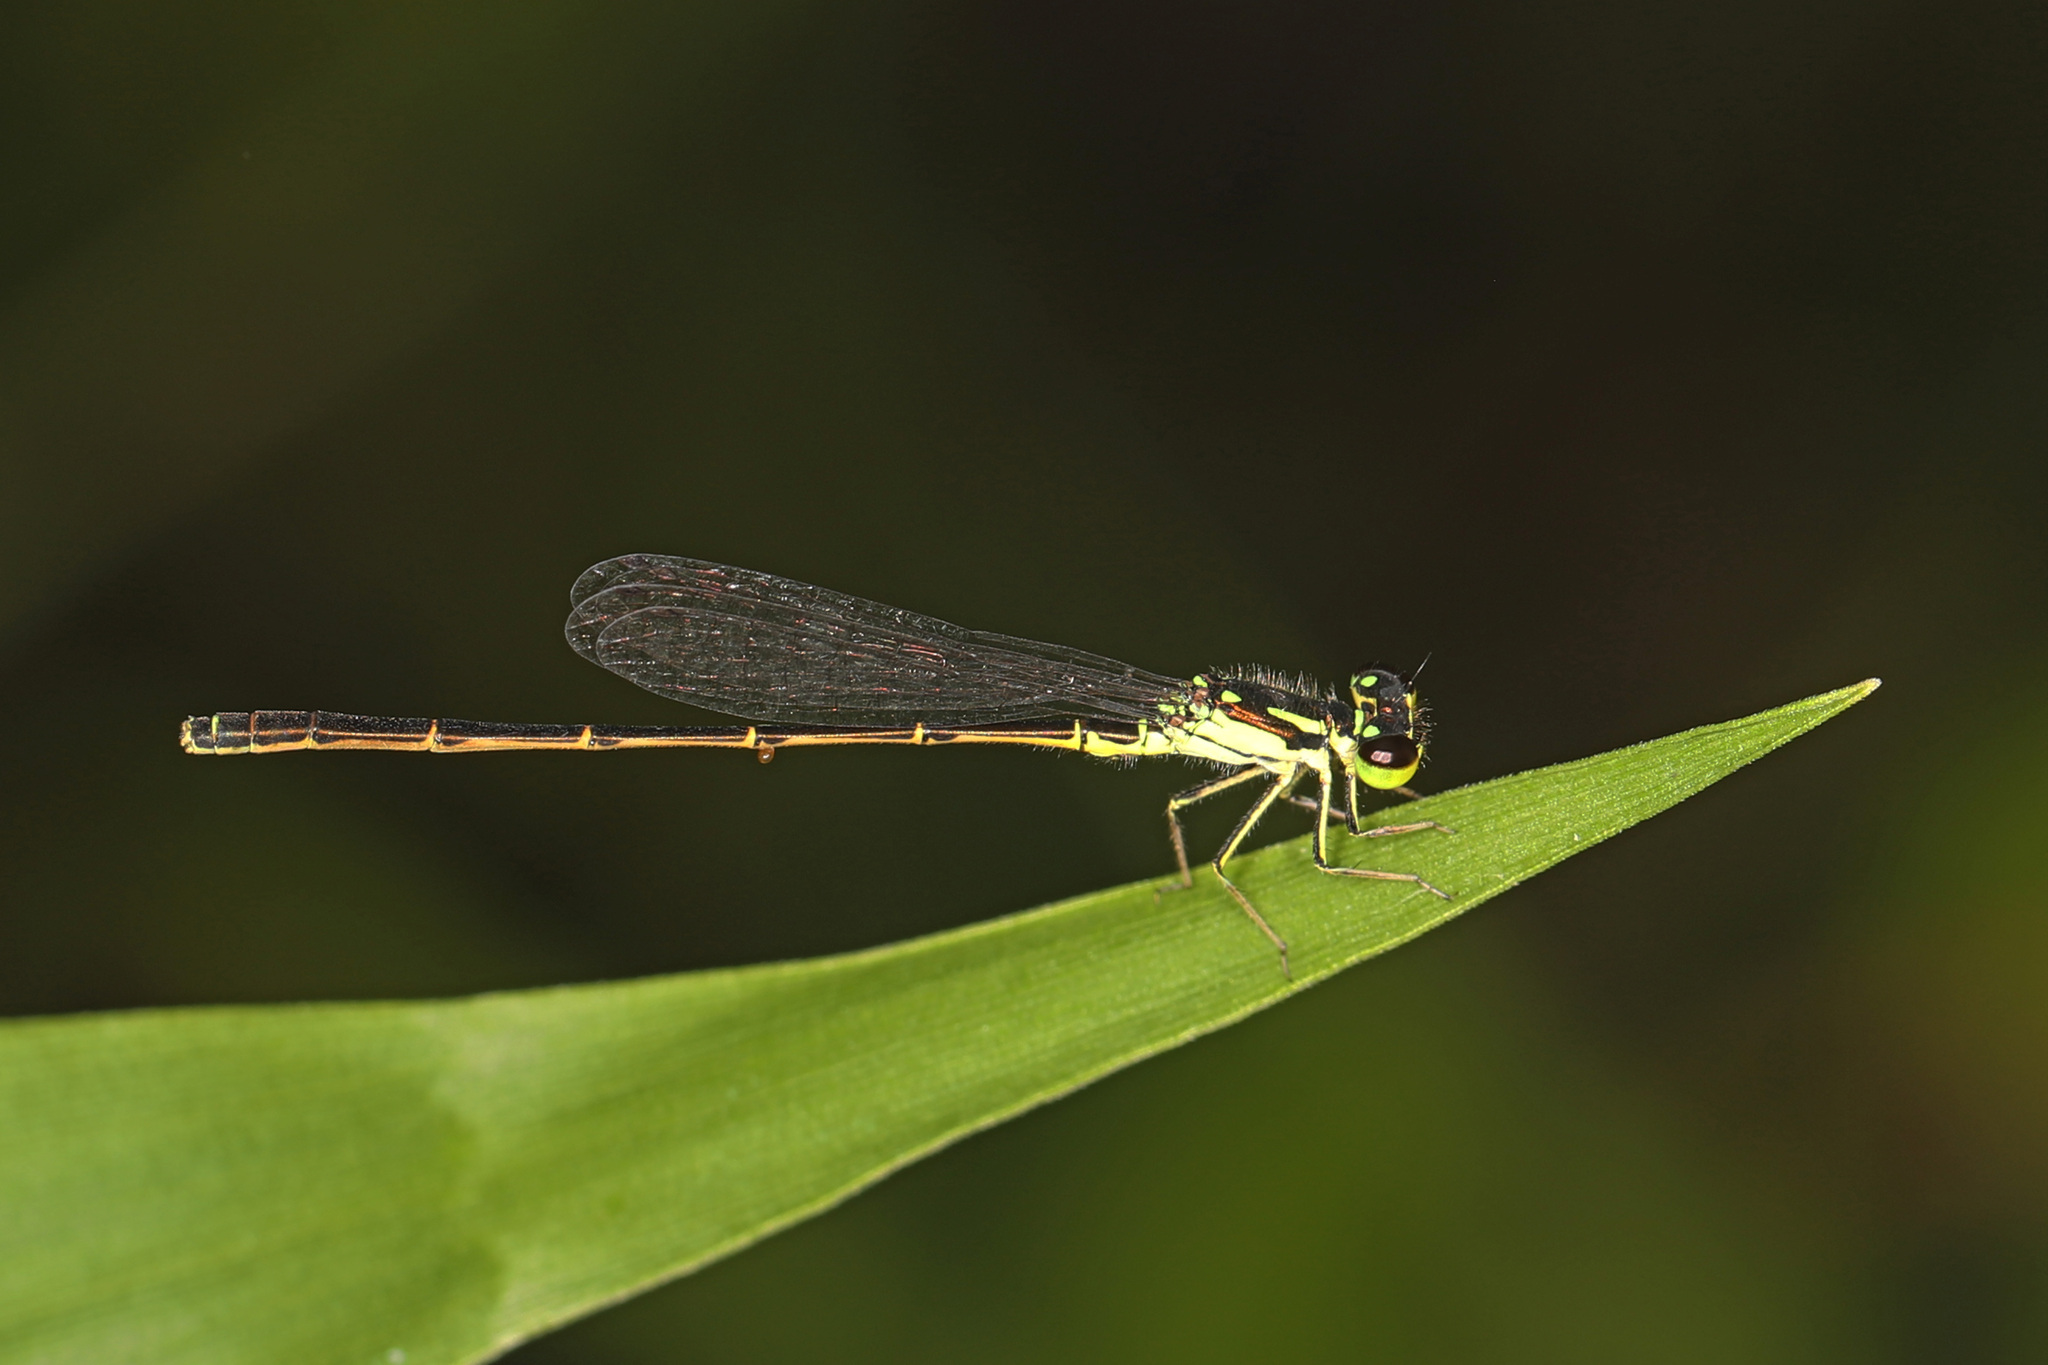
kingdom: Animalia
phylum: Arthropoda
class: Insecta
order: Odonata
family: Coenagrionidae
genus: Ischnura
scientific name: Ischnura posita
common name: Fragile forktail
